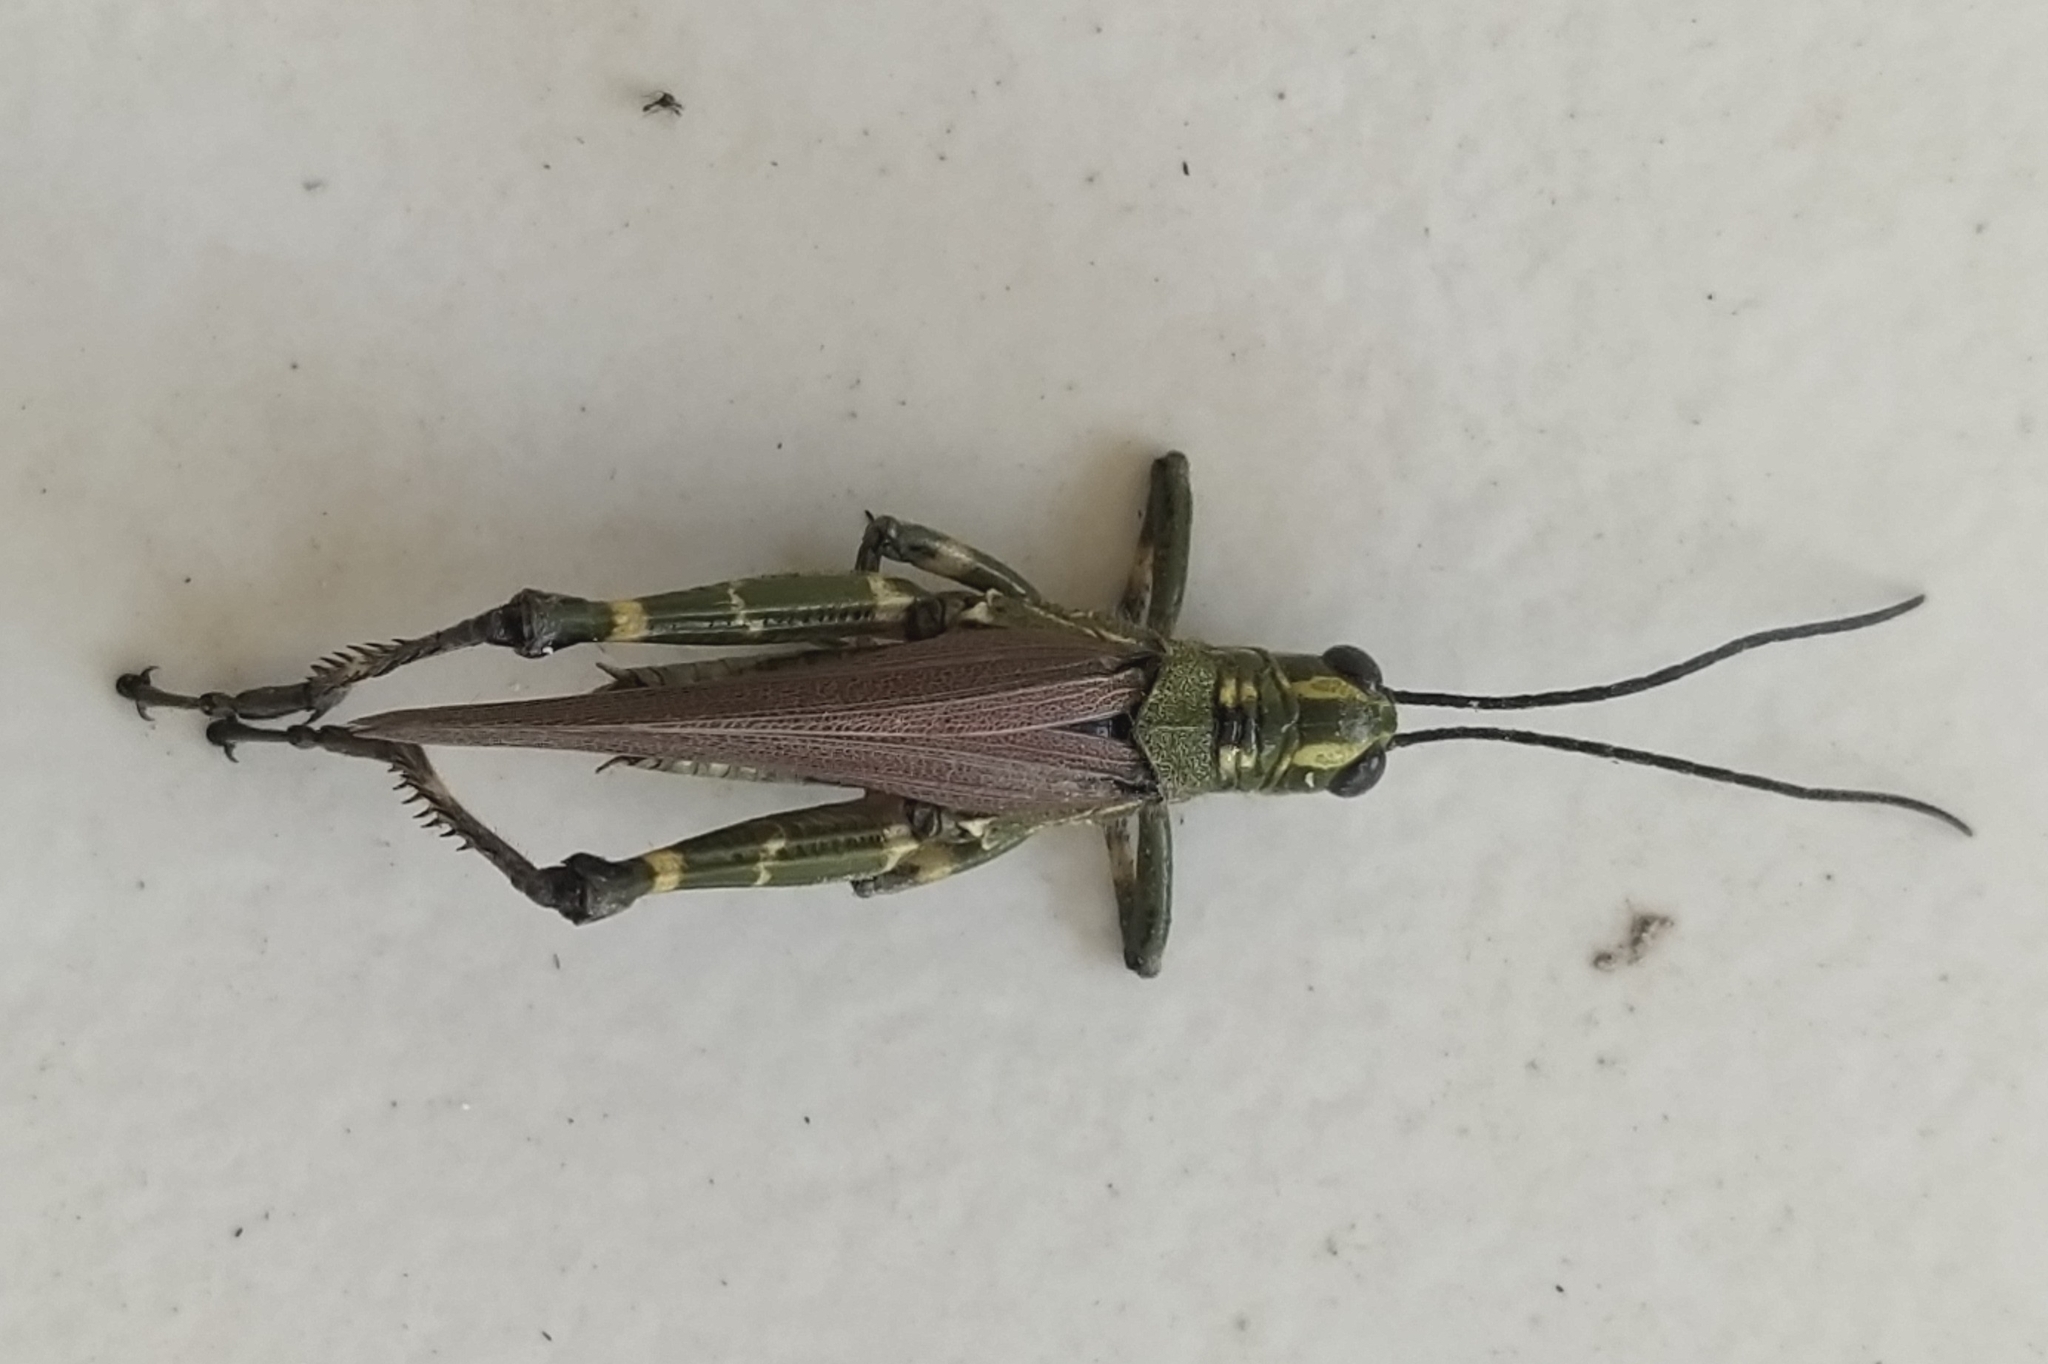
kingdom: Animalia
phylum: Arthropoda
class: Insecta
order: Orthoptera
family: Romaleidae
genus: Chromacris
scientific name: Chromacris speciosa
